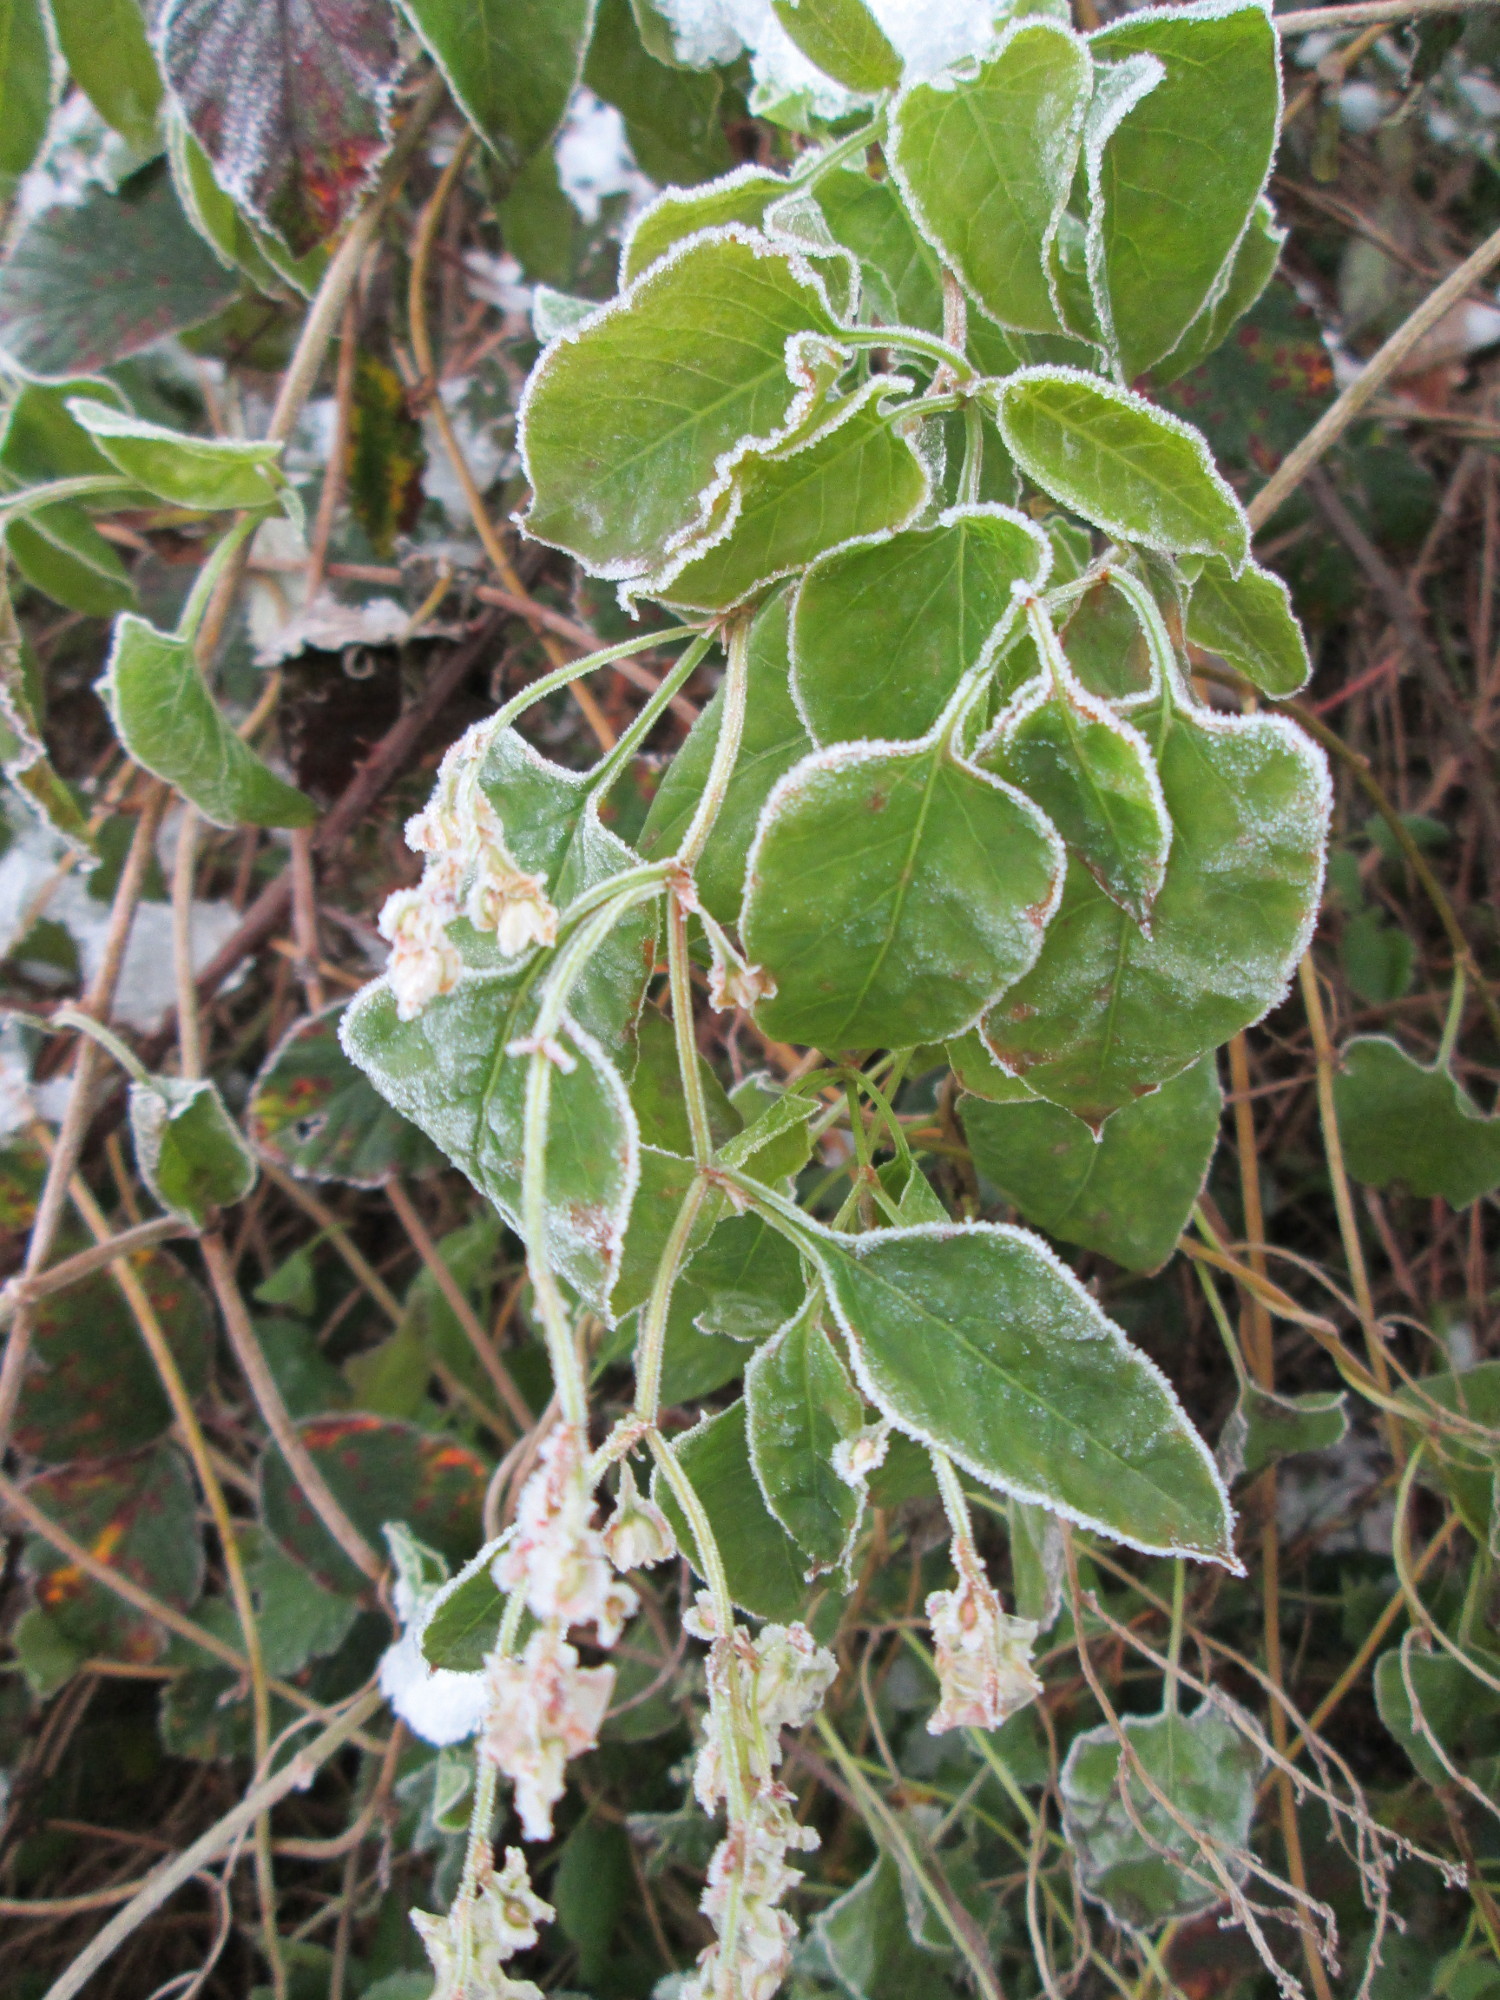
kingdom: Plantae
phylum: Tracheophyta
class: Magnoliopsida
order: Caryophyllales
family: Polygonaceae
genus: Fallopia
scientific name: Fallopia baldschuanica
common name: Russian-vine
